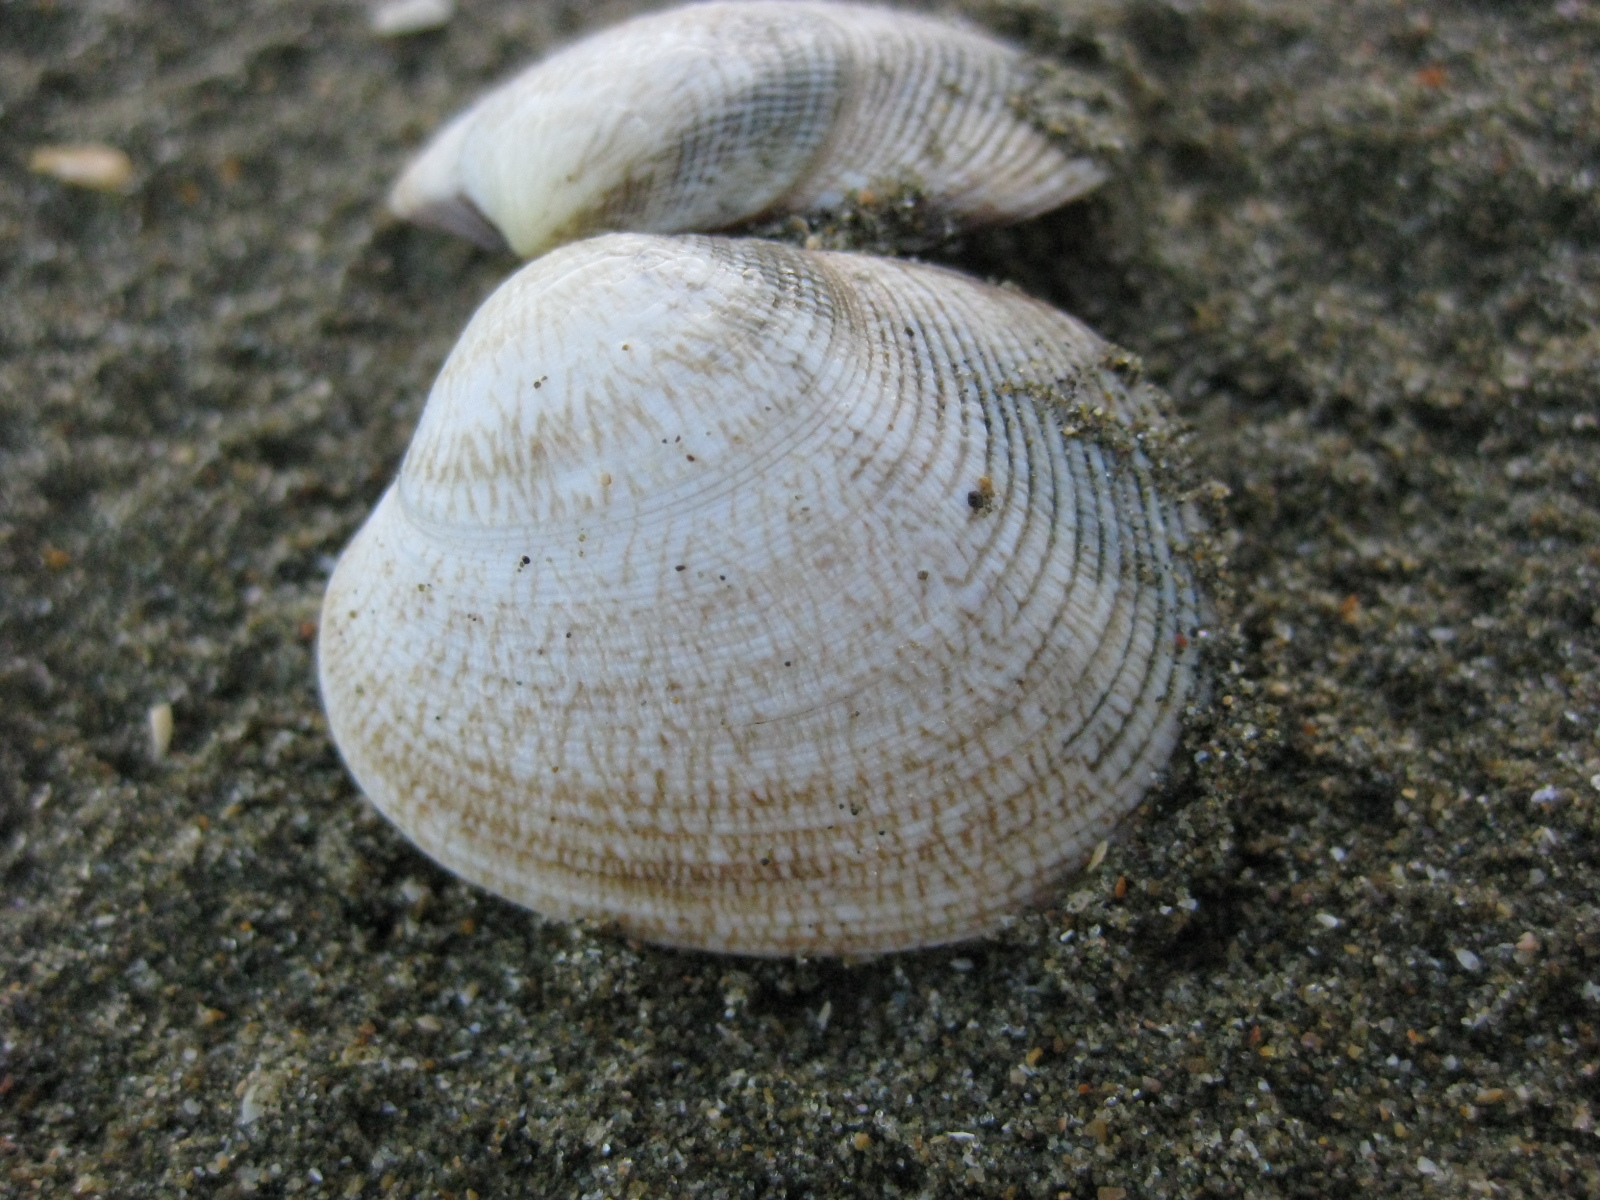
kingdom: Animalia
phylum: Mollusca
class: Bivalvia
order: Venerida
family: Veneridae
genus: Venerupis
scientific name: Venerupis largillierti
